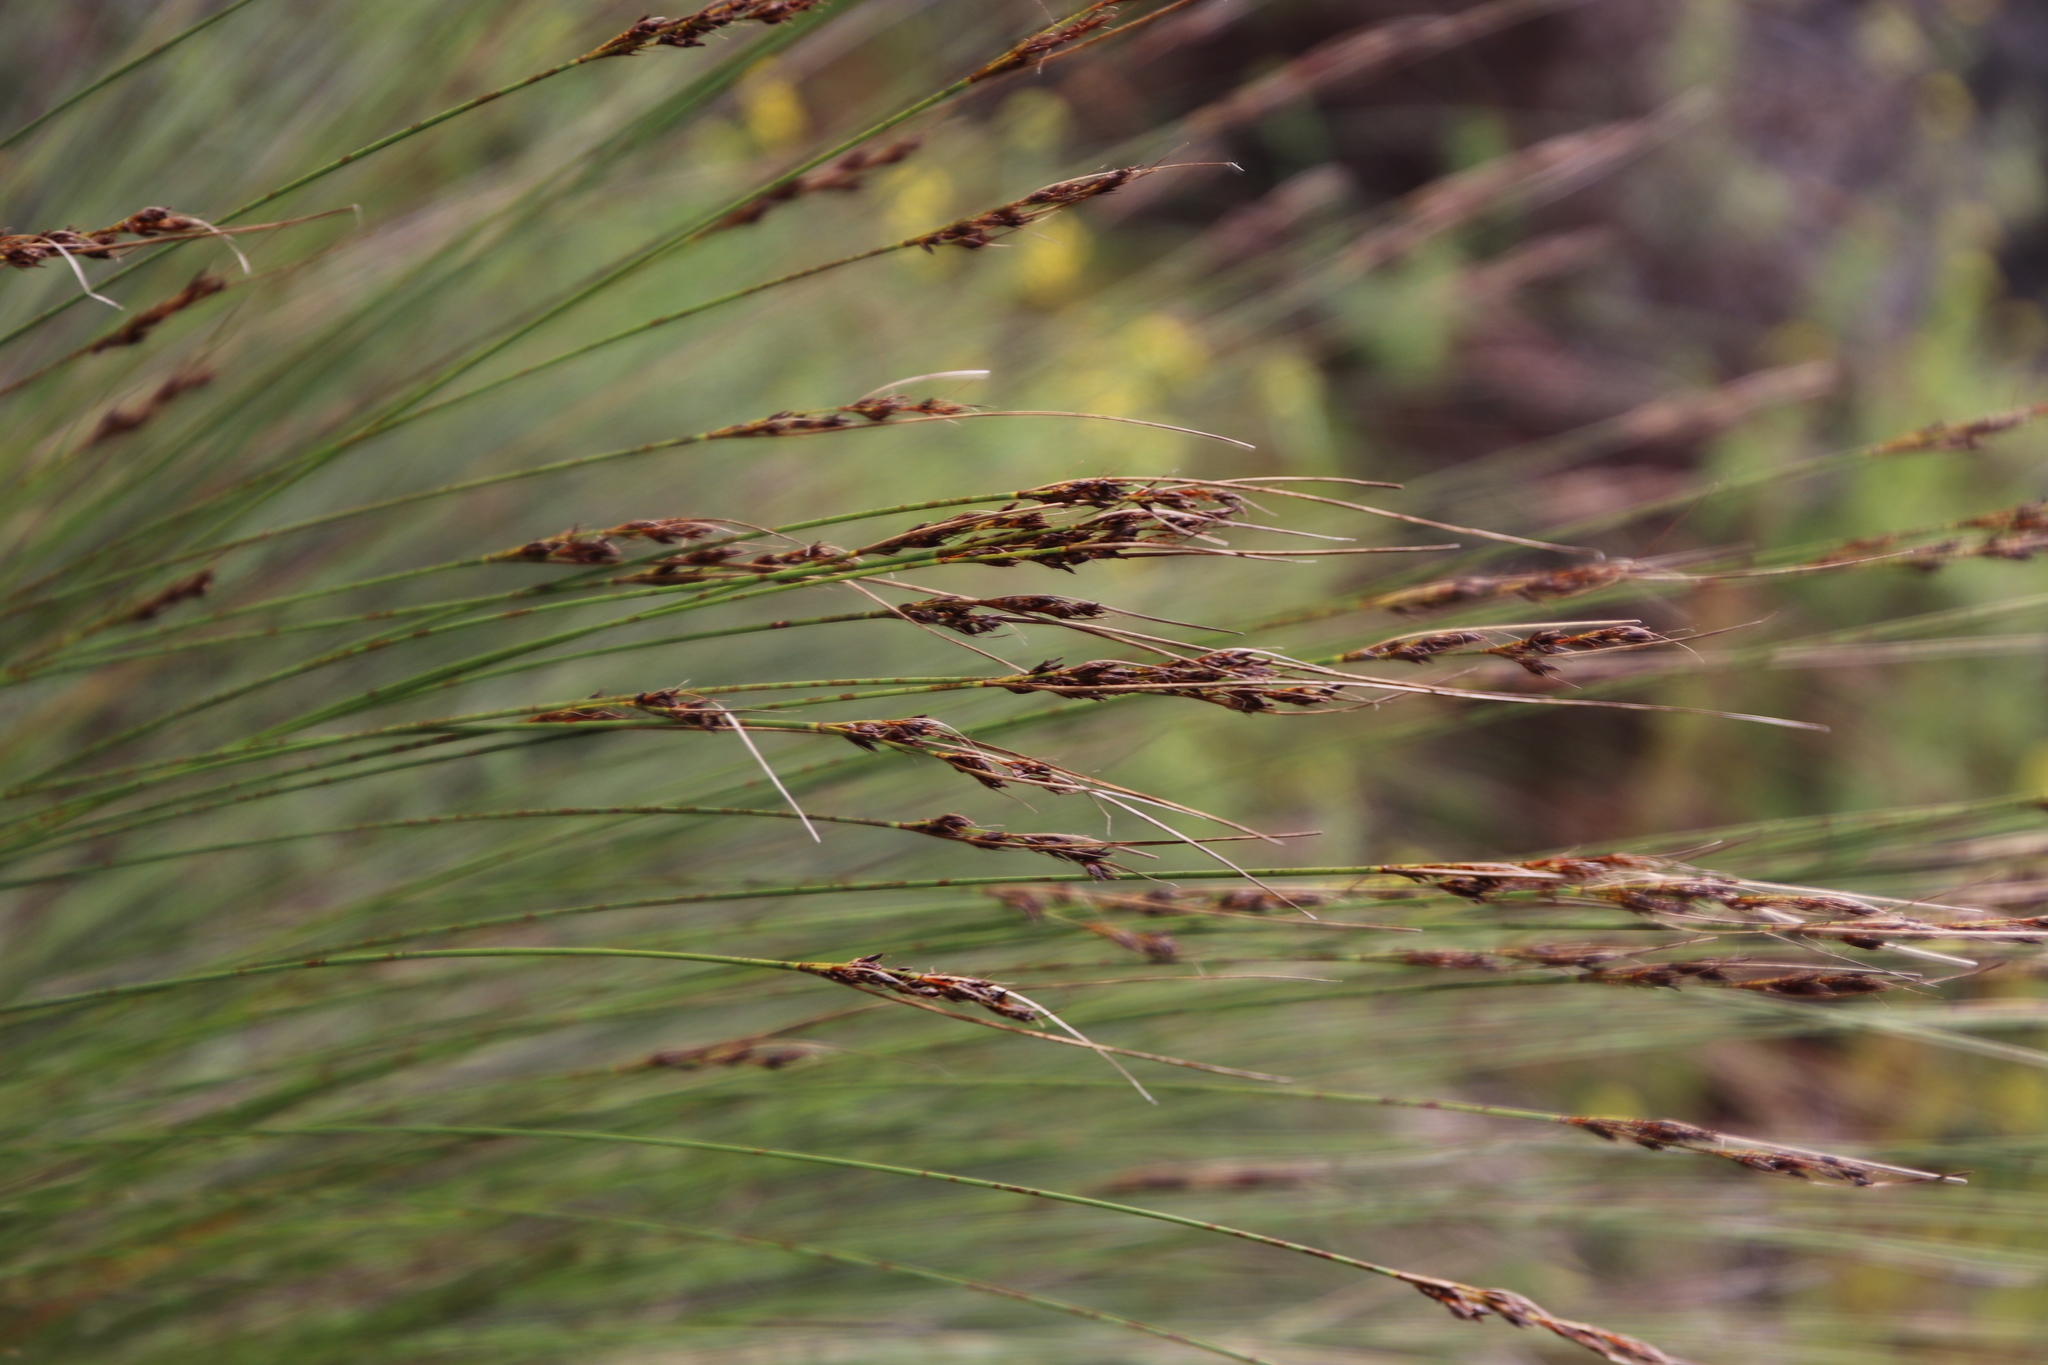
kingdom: Plantae
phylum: Tracheophyta
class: Liliopsida
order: Poales
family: Cyperaceae
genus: Schoenus
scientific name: Schoenus cuspidatus
